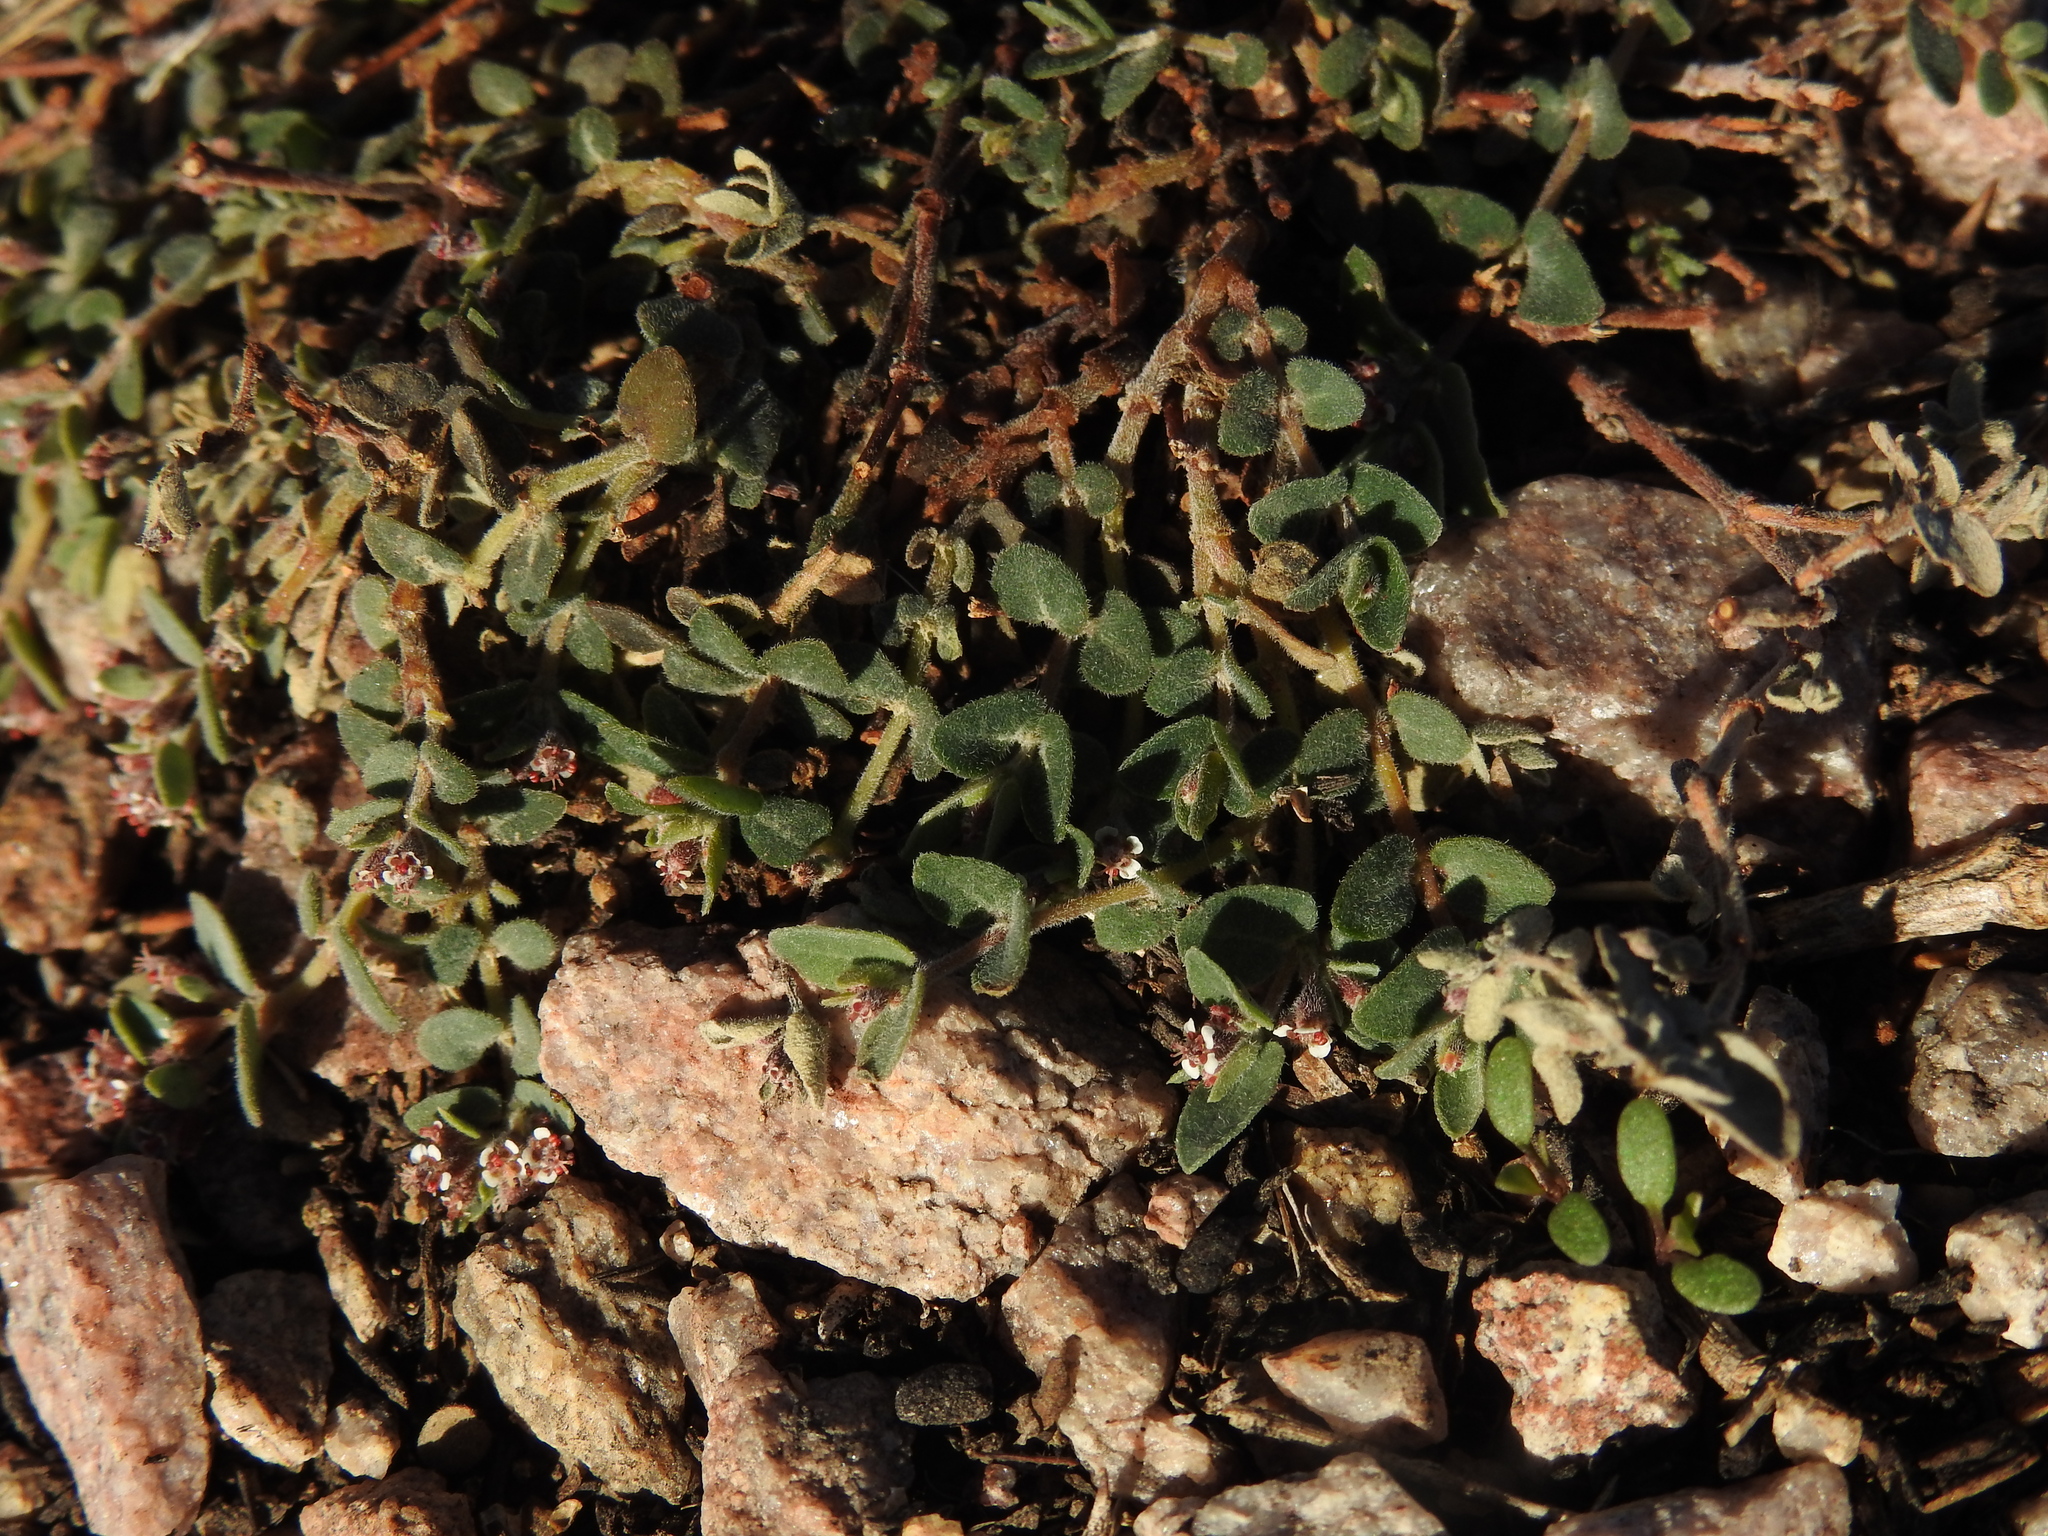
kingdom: Plantae
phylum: Tracheophyta
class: Magnoliopsida
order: Malpighiales
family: Euphorbiaceae
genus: Euphorbia
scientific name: Euphorbia capitellata
